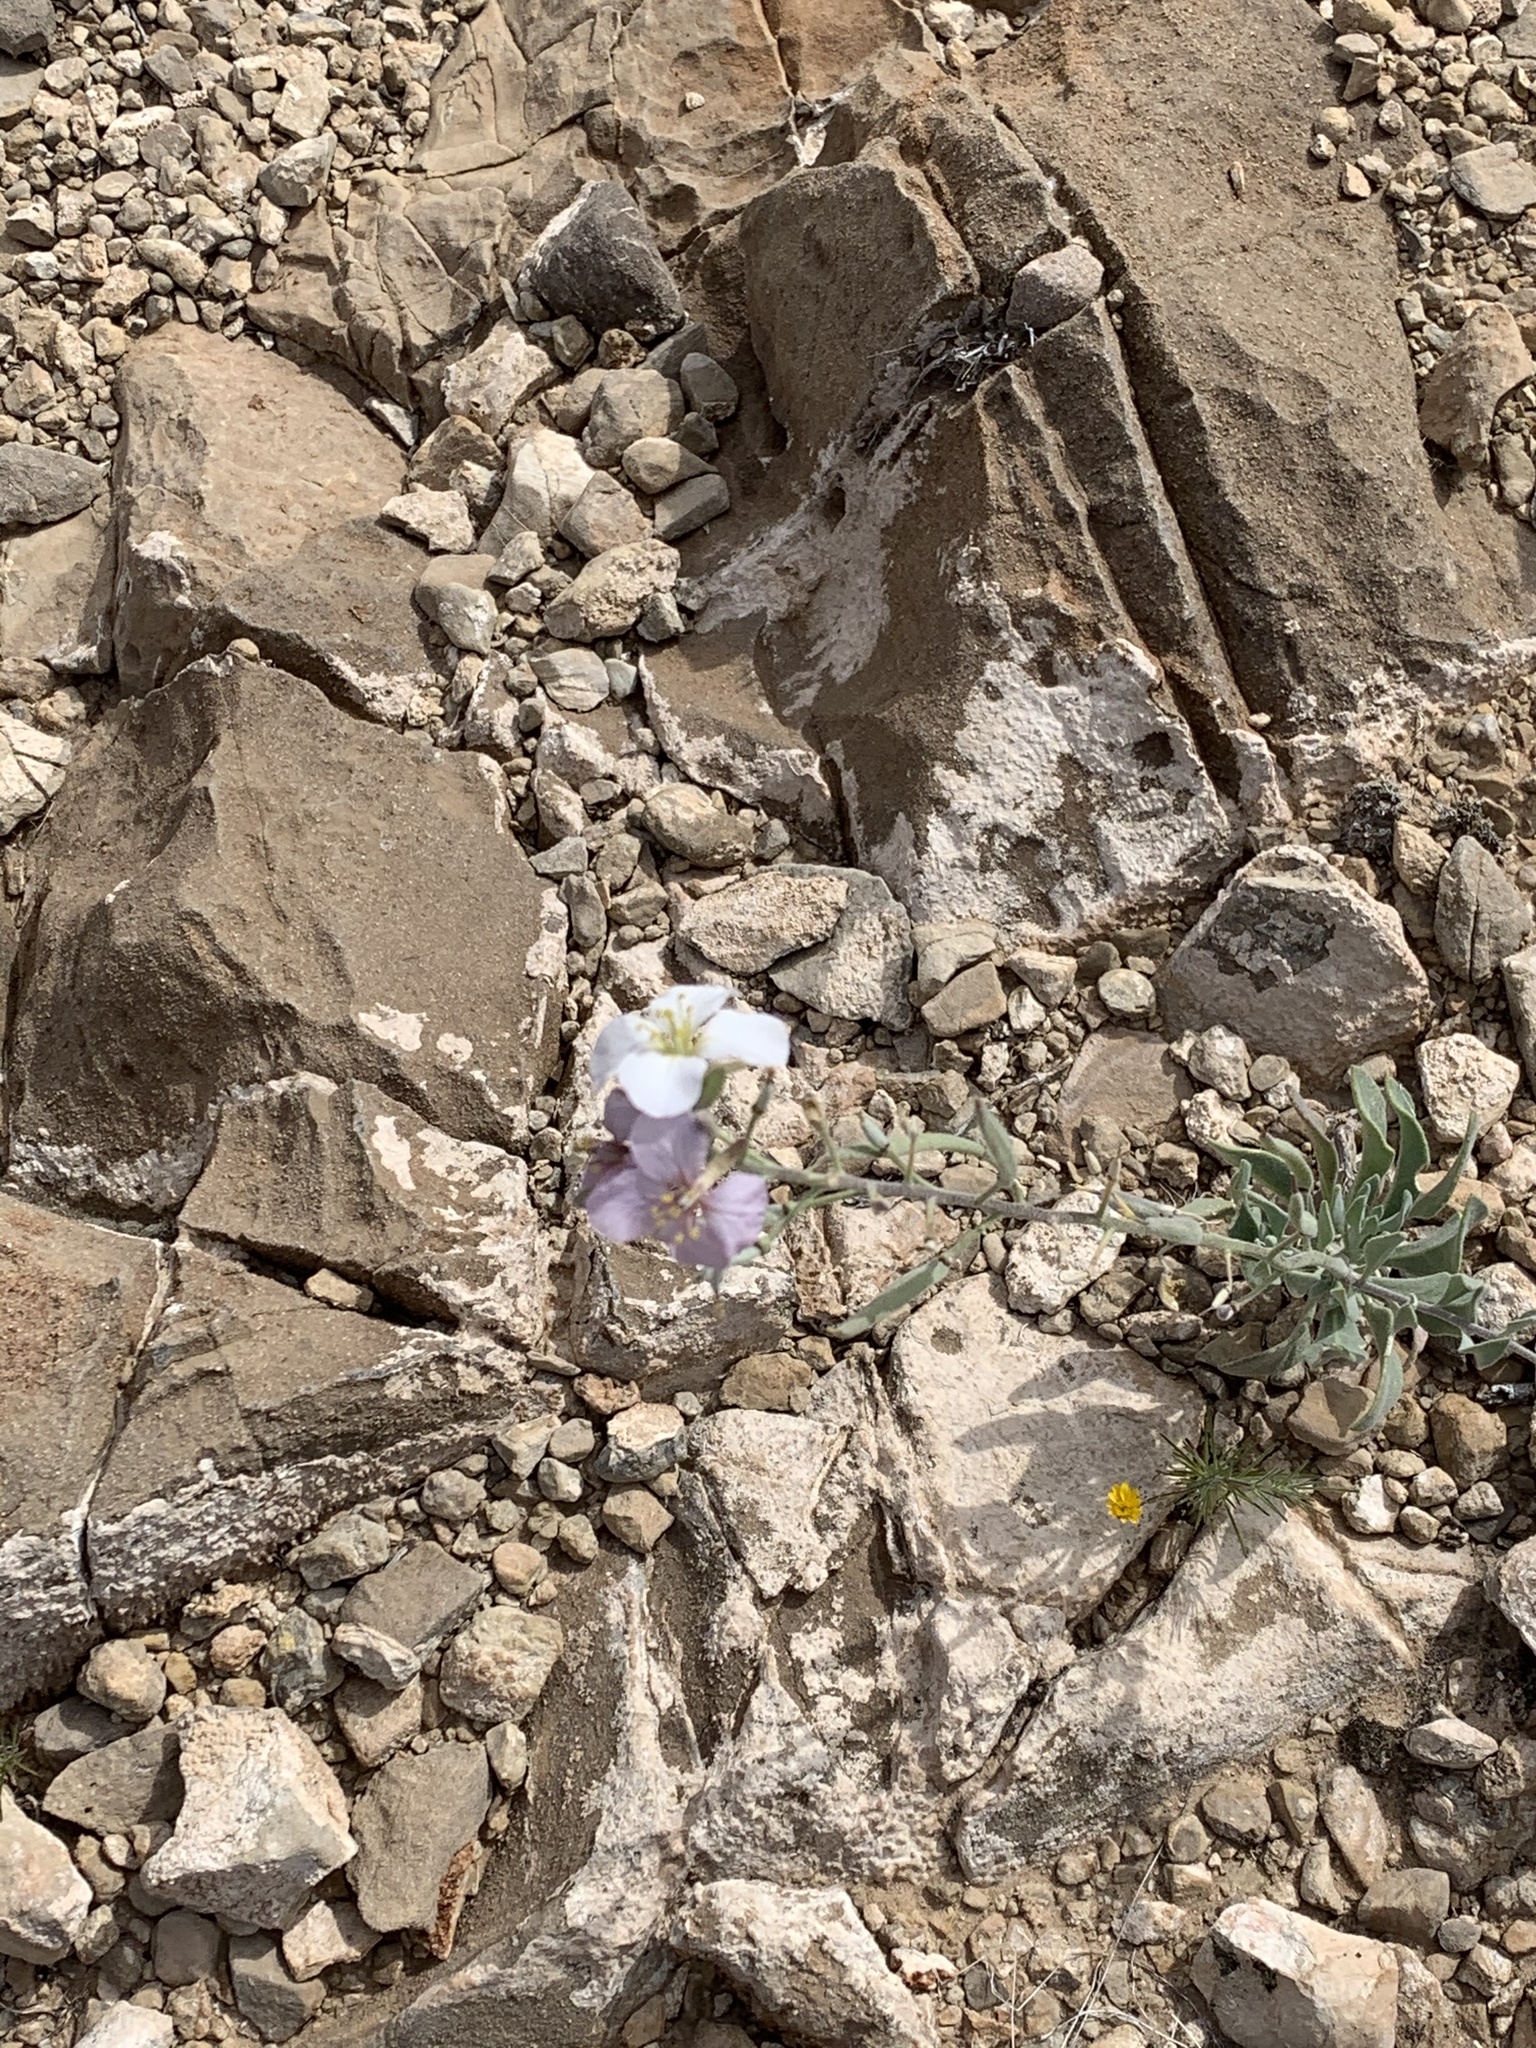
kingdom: Plantae
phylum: Tracheophyta
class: Magnoliopsida
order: Brassicales
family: Brassicaceae
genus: Nerisyrenia
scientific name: Nerisyrenia camporum
